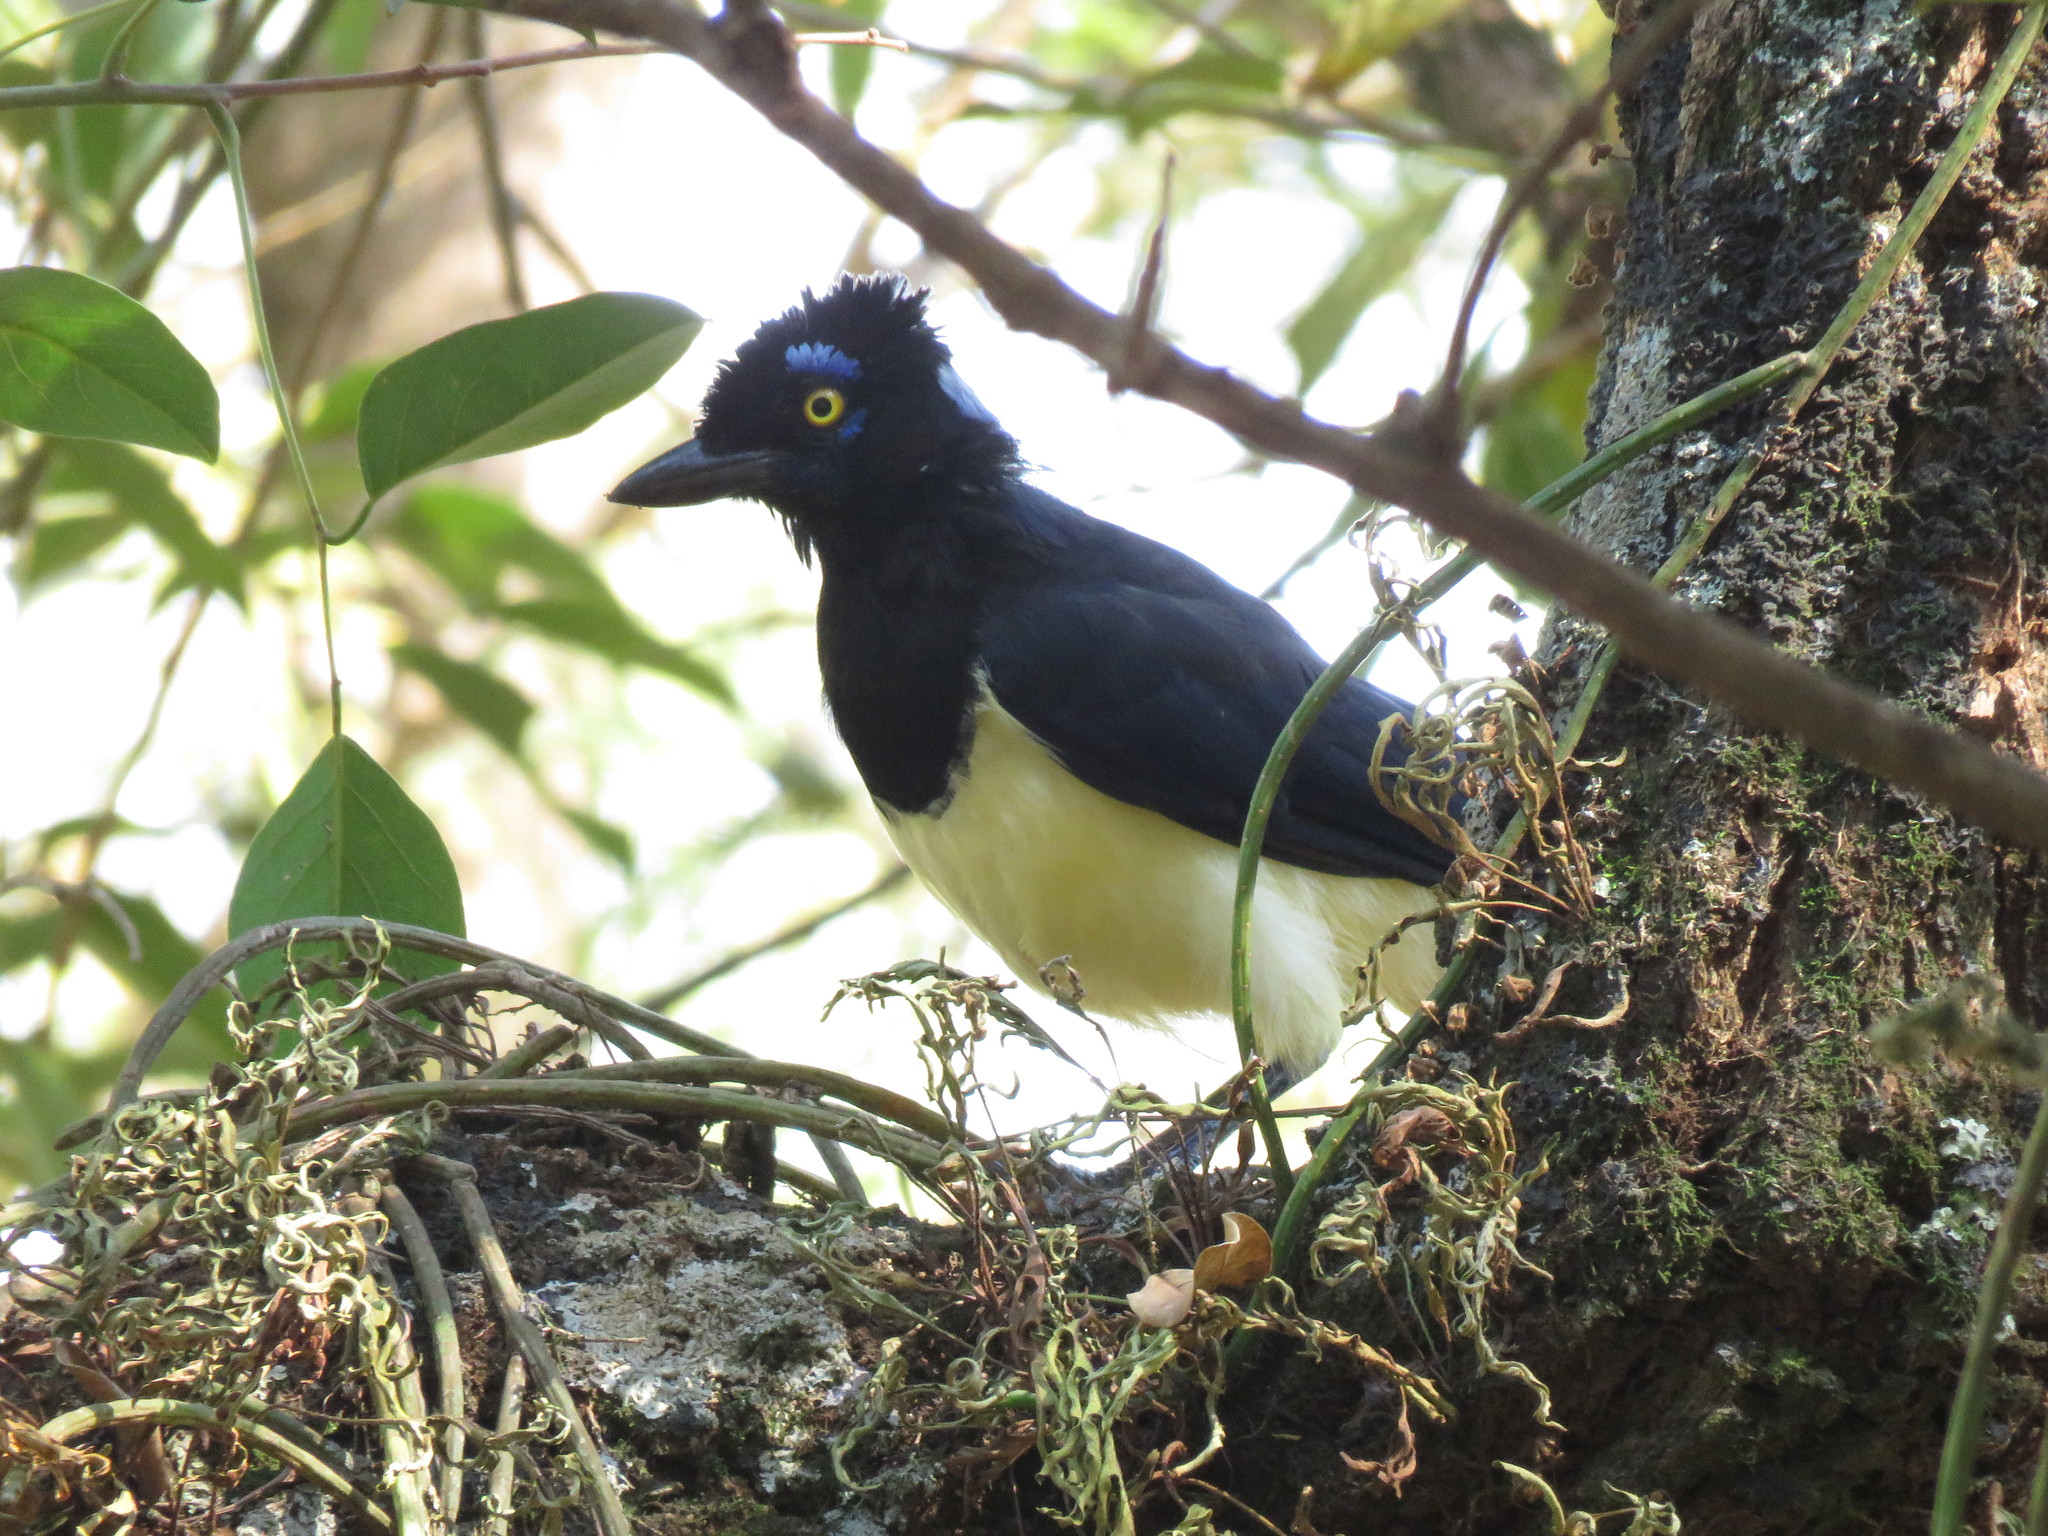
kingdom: Animalia
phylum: Chordata
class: Aves
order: Passeriformes
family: Corvidae
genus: Cyanocorax
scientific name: Cyanocorax chrysops
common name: Plush-crested jay
